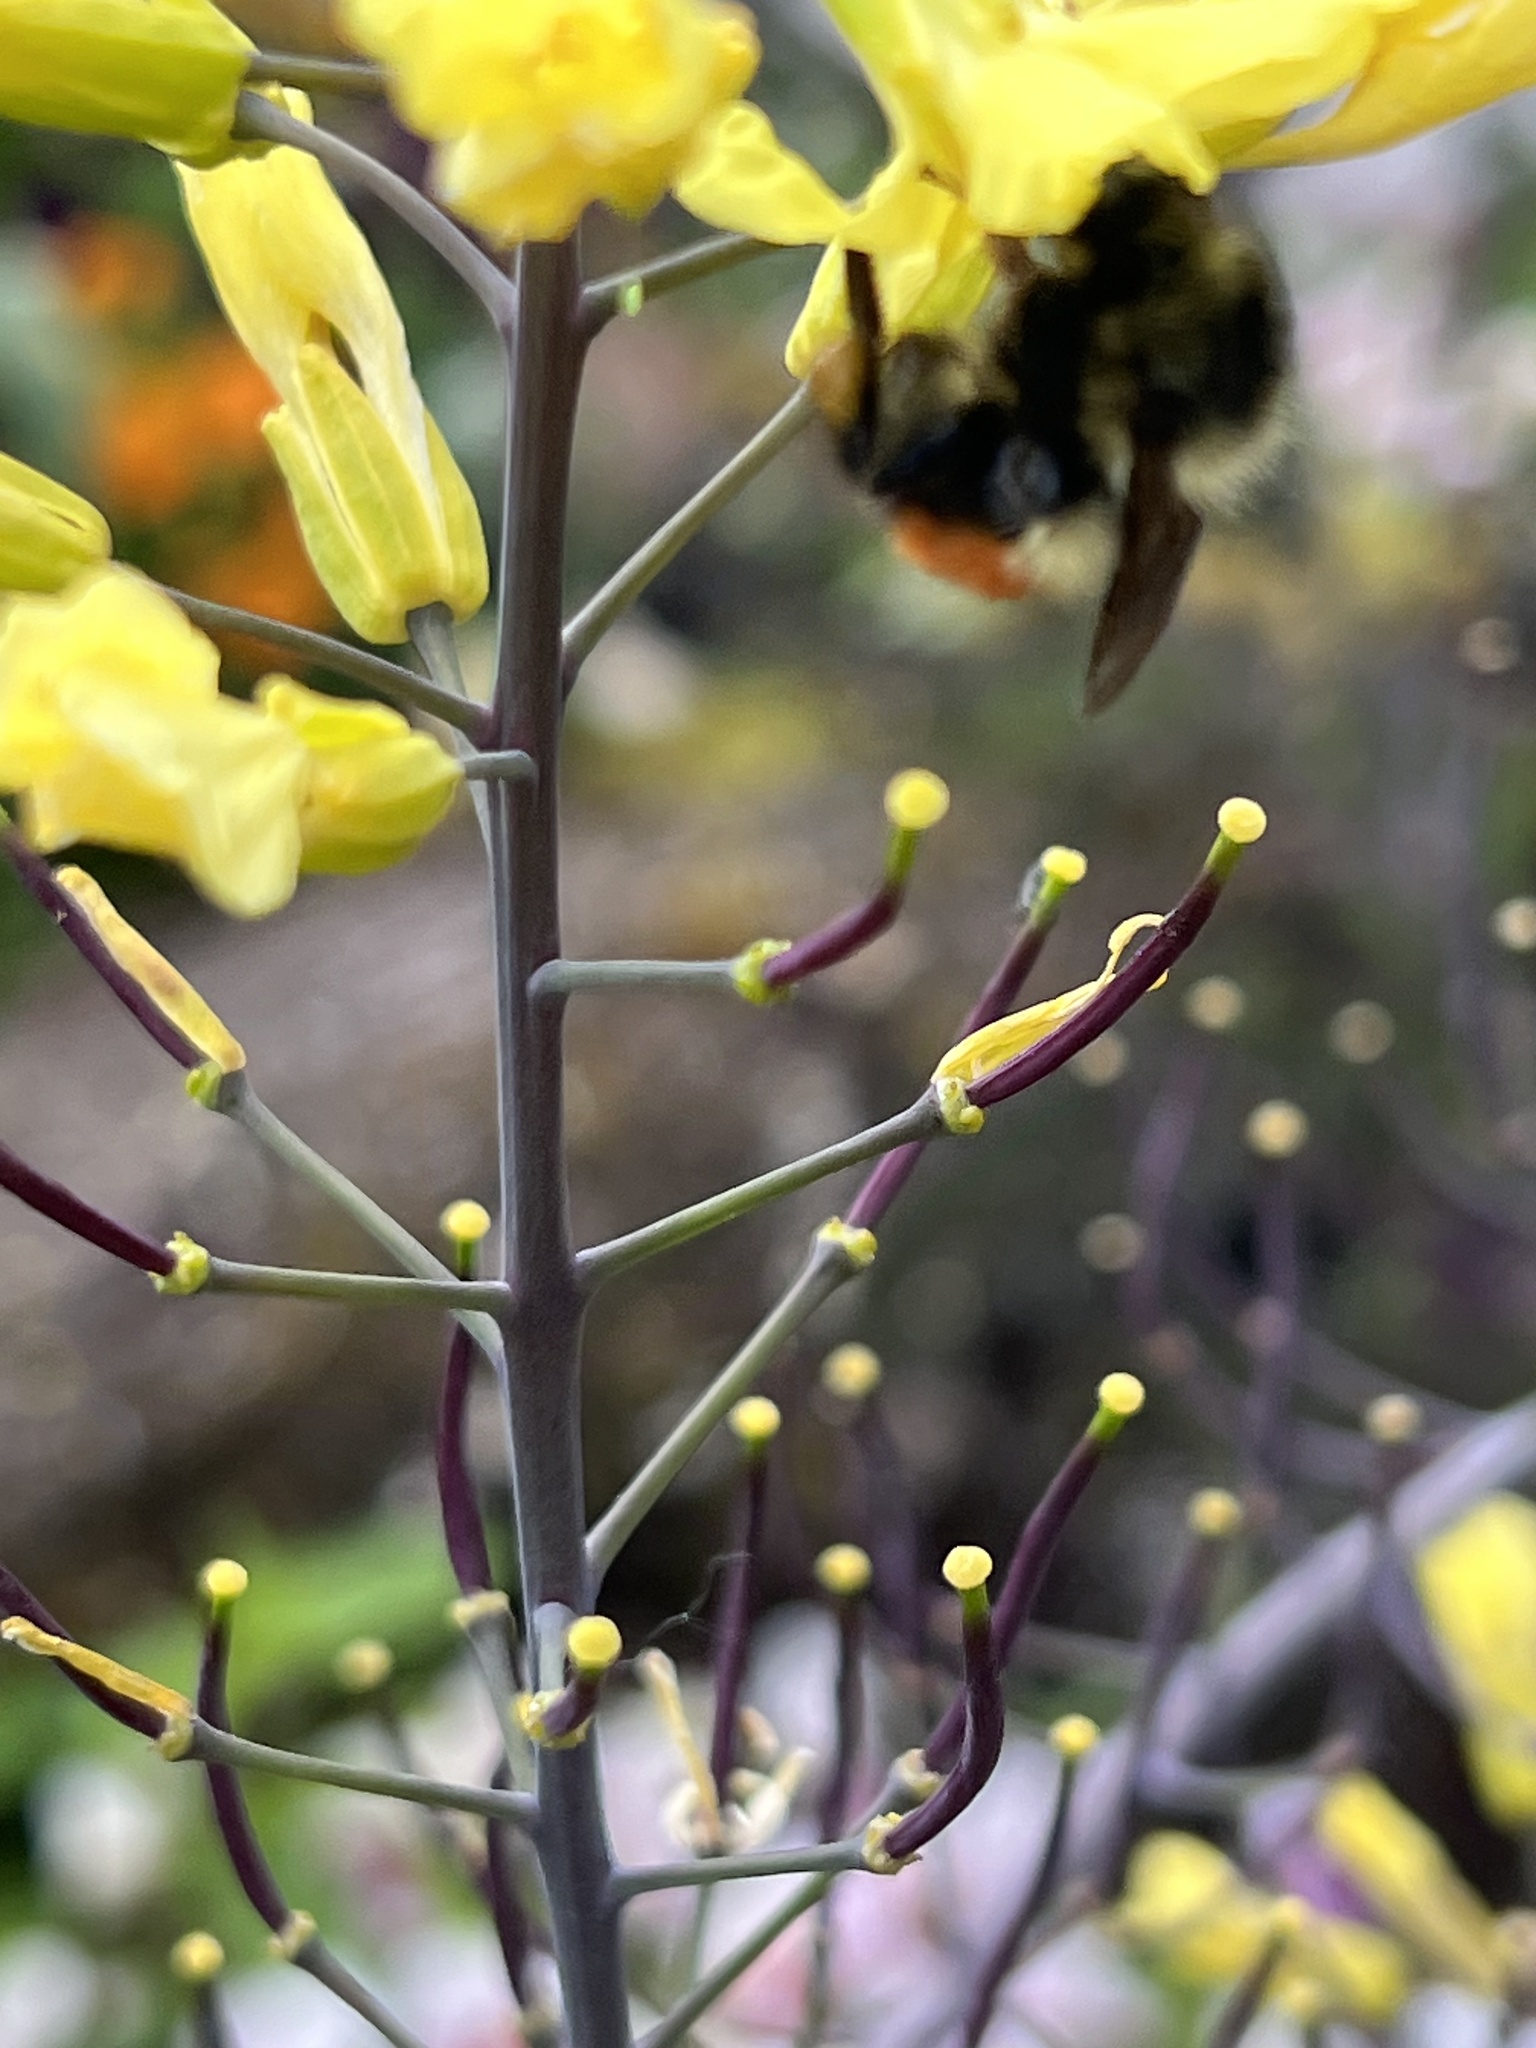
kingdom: Animalia
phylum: Arthropoda
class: Insecta
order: Hymenoptera
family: Apidae
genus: Bombus
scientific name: Bombus melanopygus
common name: Black tail bumble bee
